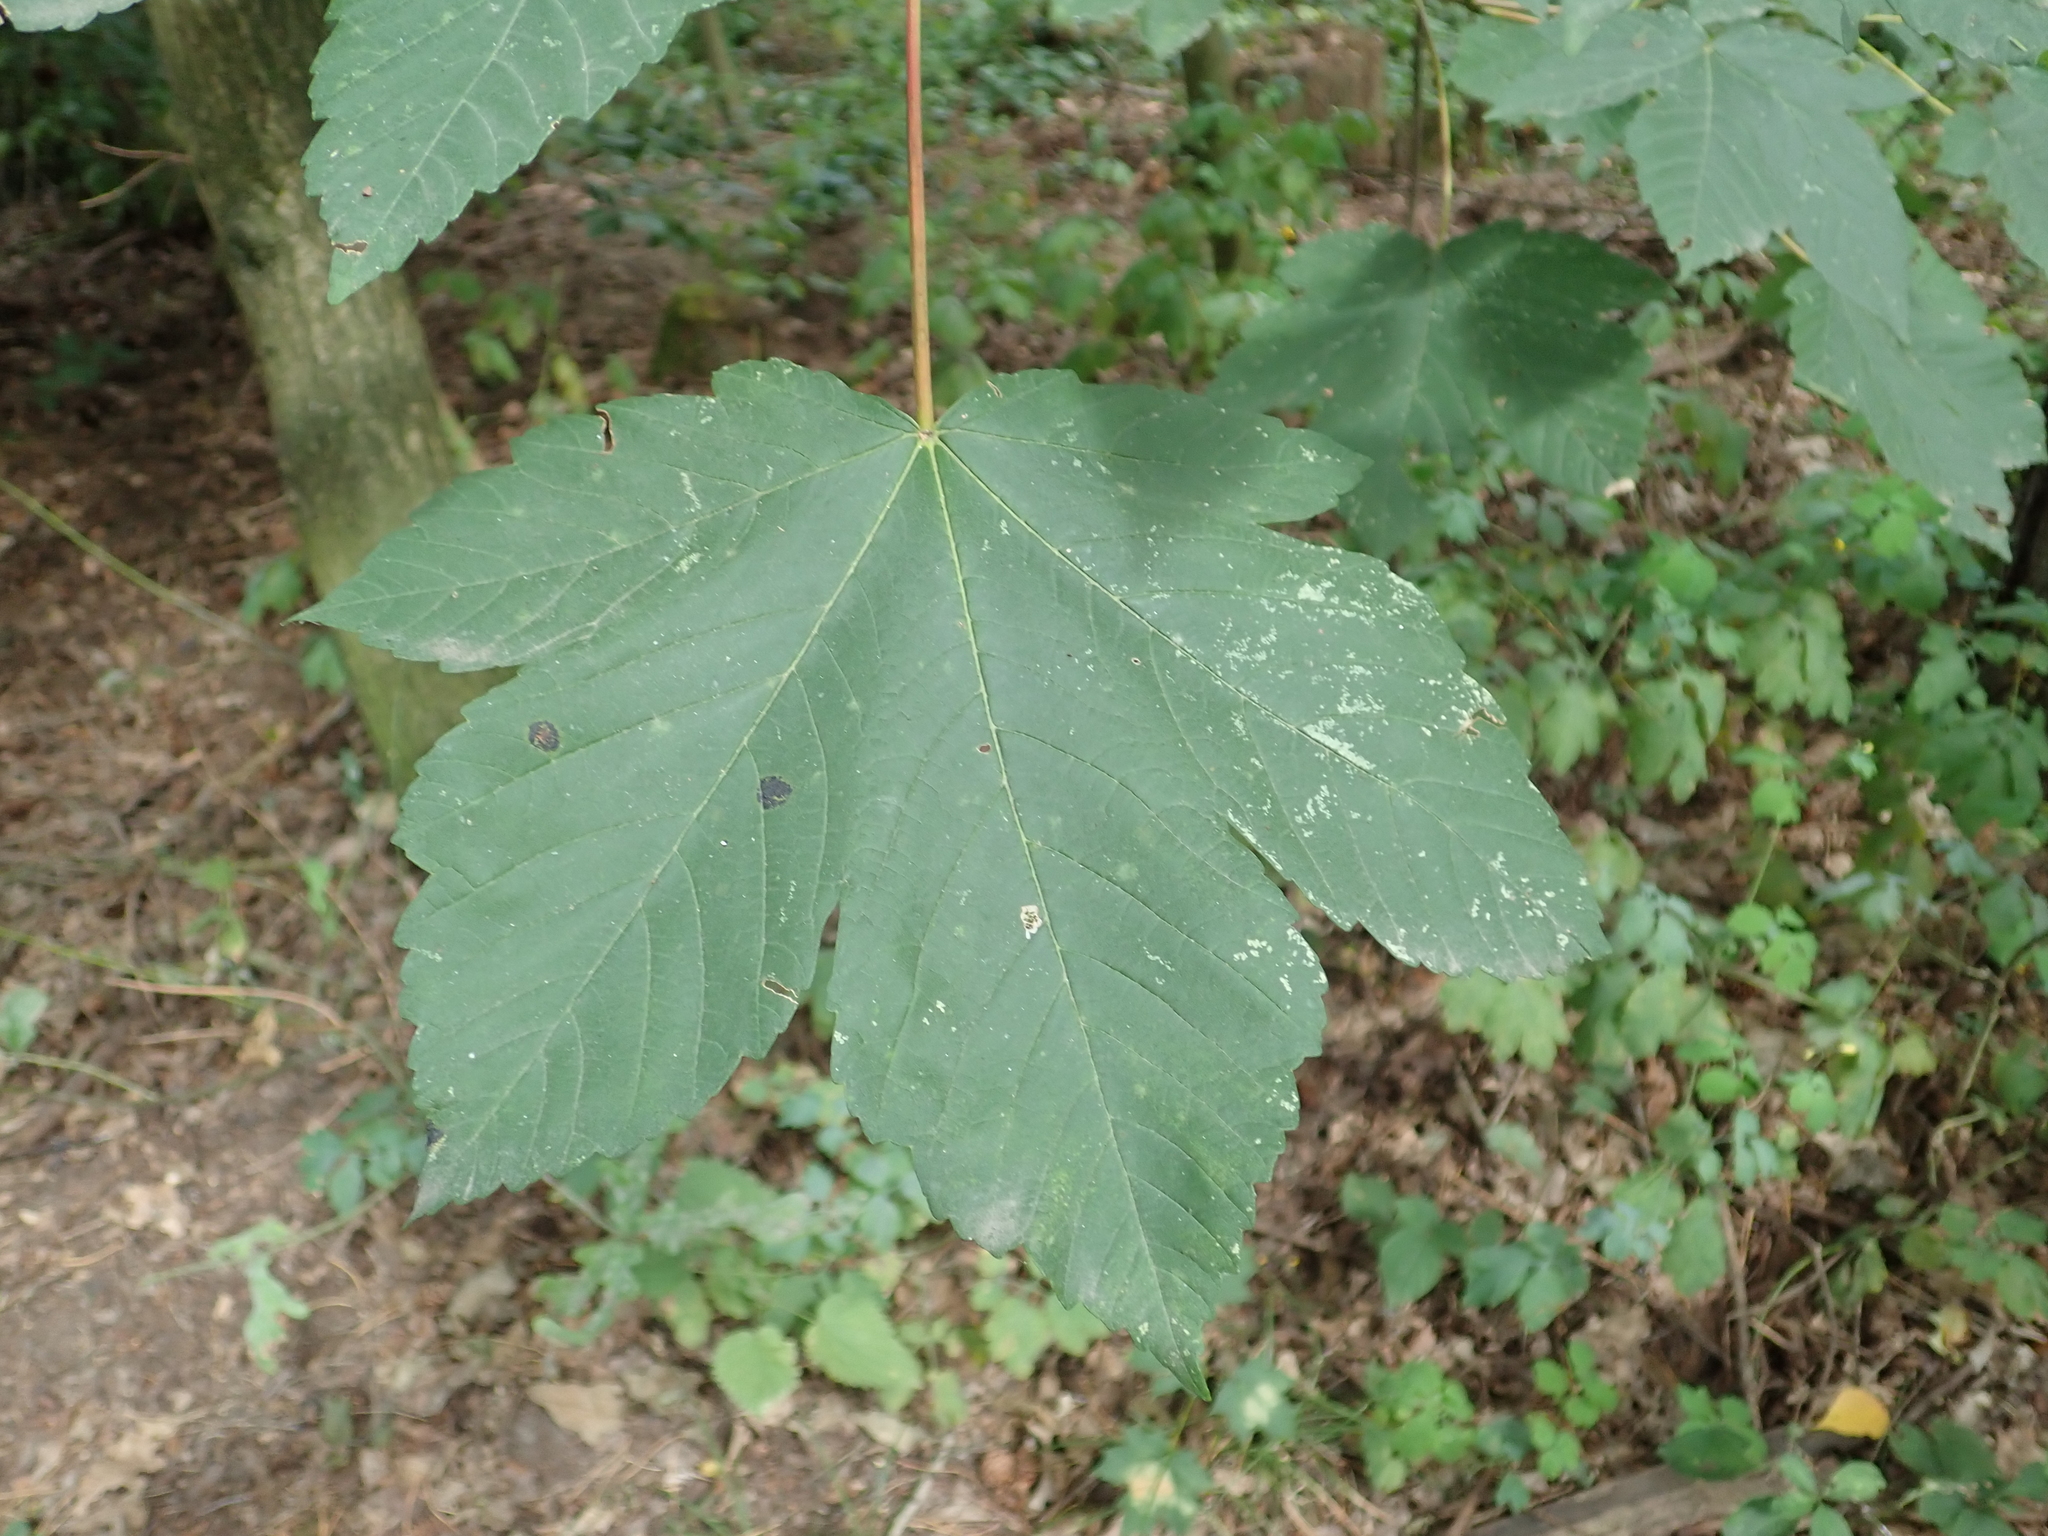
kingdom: Plantae
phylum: Tracheophyta
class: Magnoliopsida
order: Sapindales
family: Sapindaceae
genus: Acer
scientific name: Acer pseudoplatanus
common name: Sycamore
